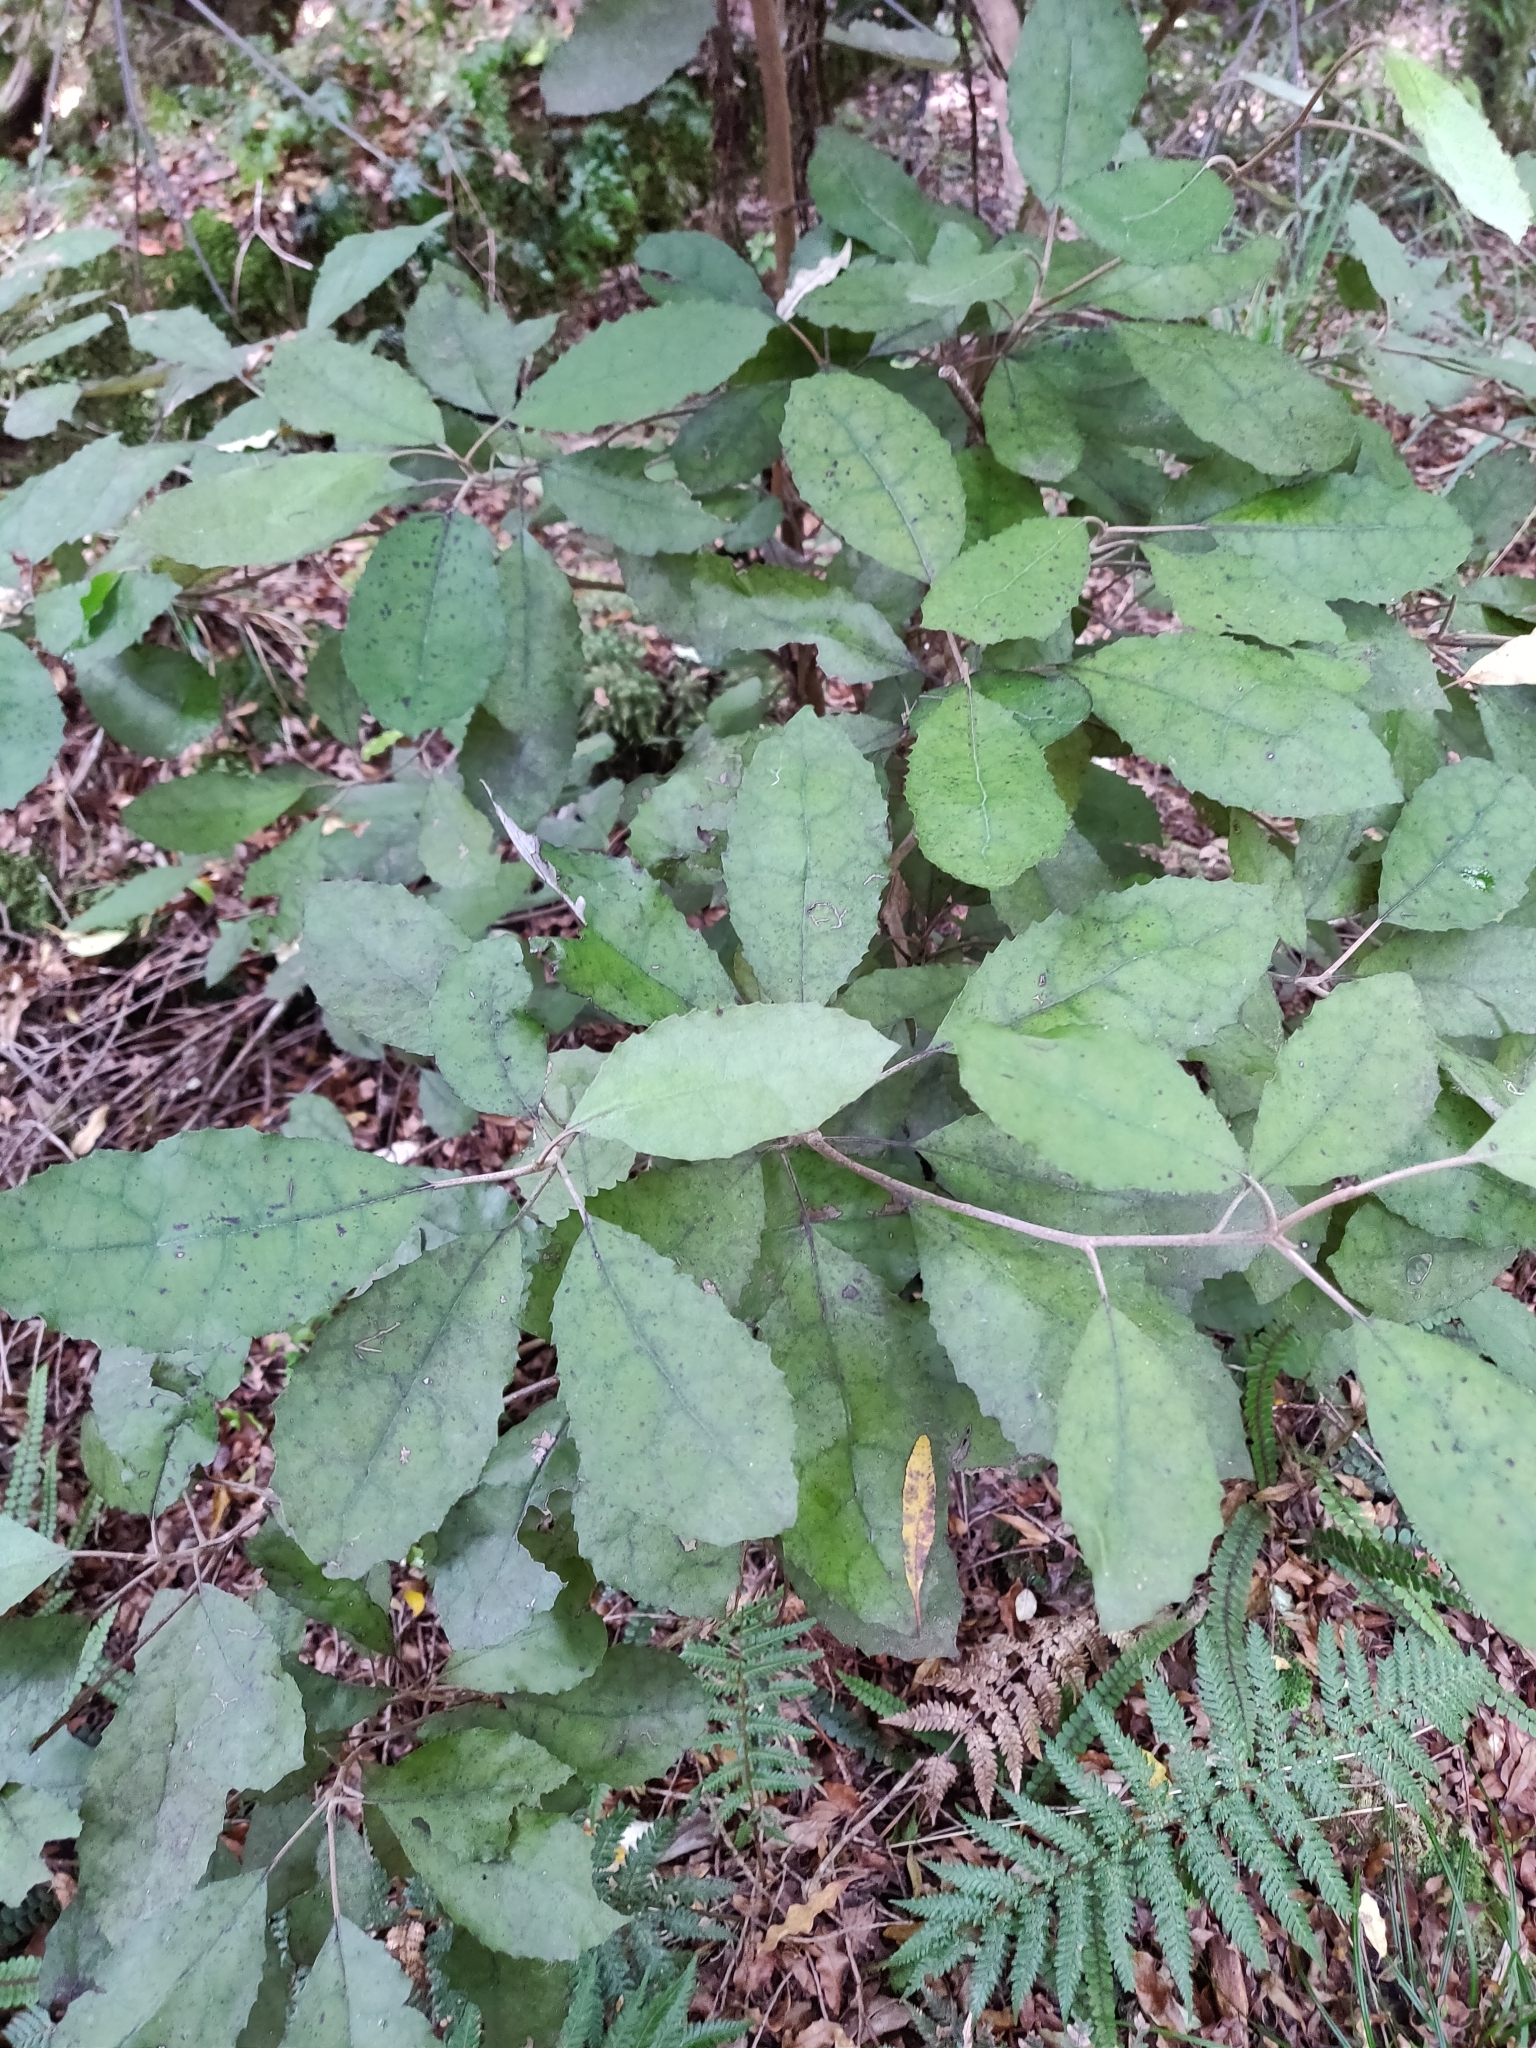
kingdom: Plantae
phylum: Tracheophyta
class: Magnoliopsida
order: Asterales
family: Asteraceae
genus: Olearia
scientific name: Olearia rani
